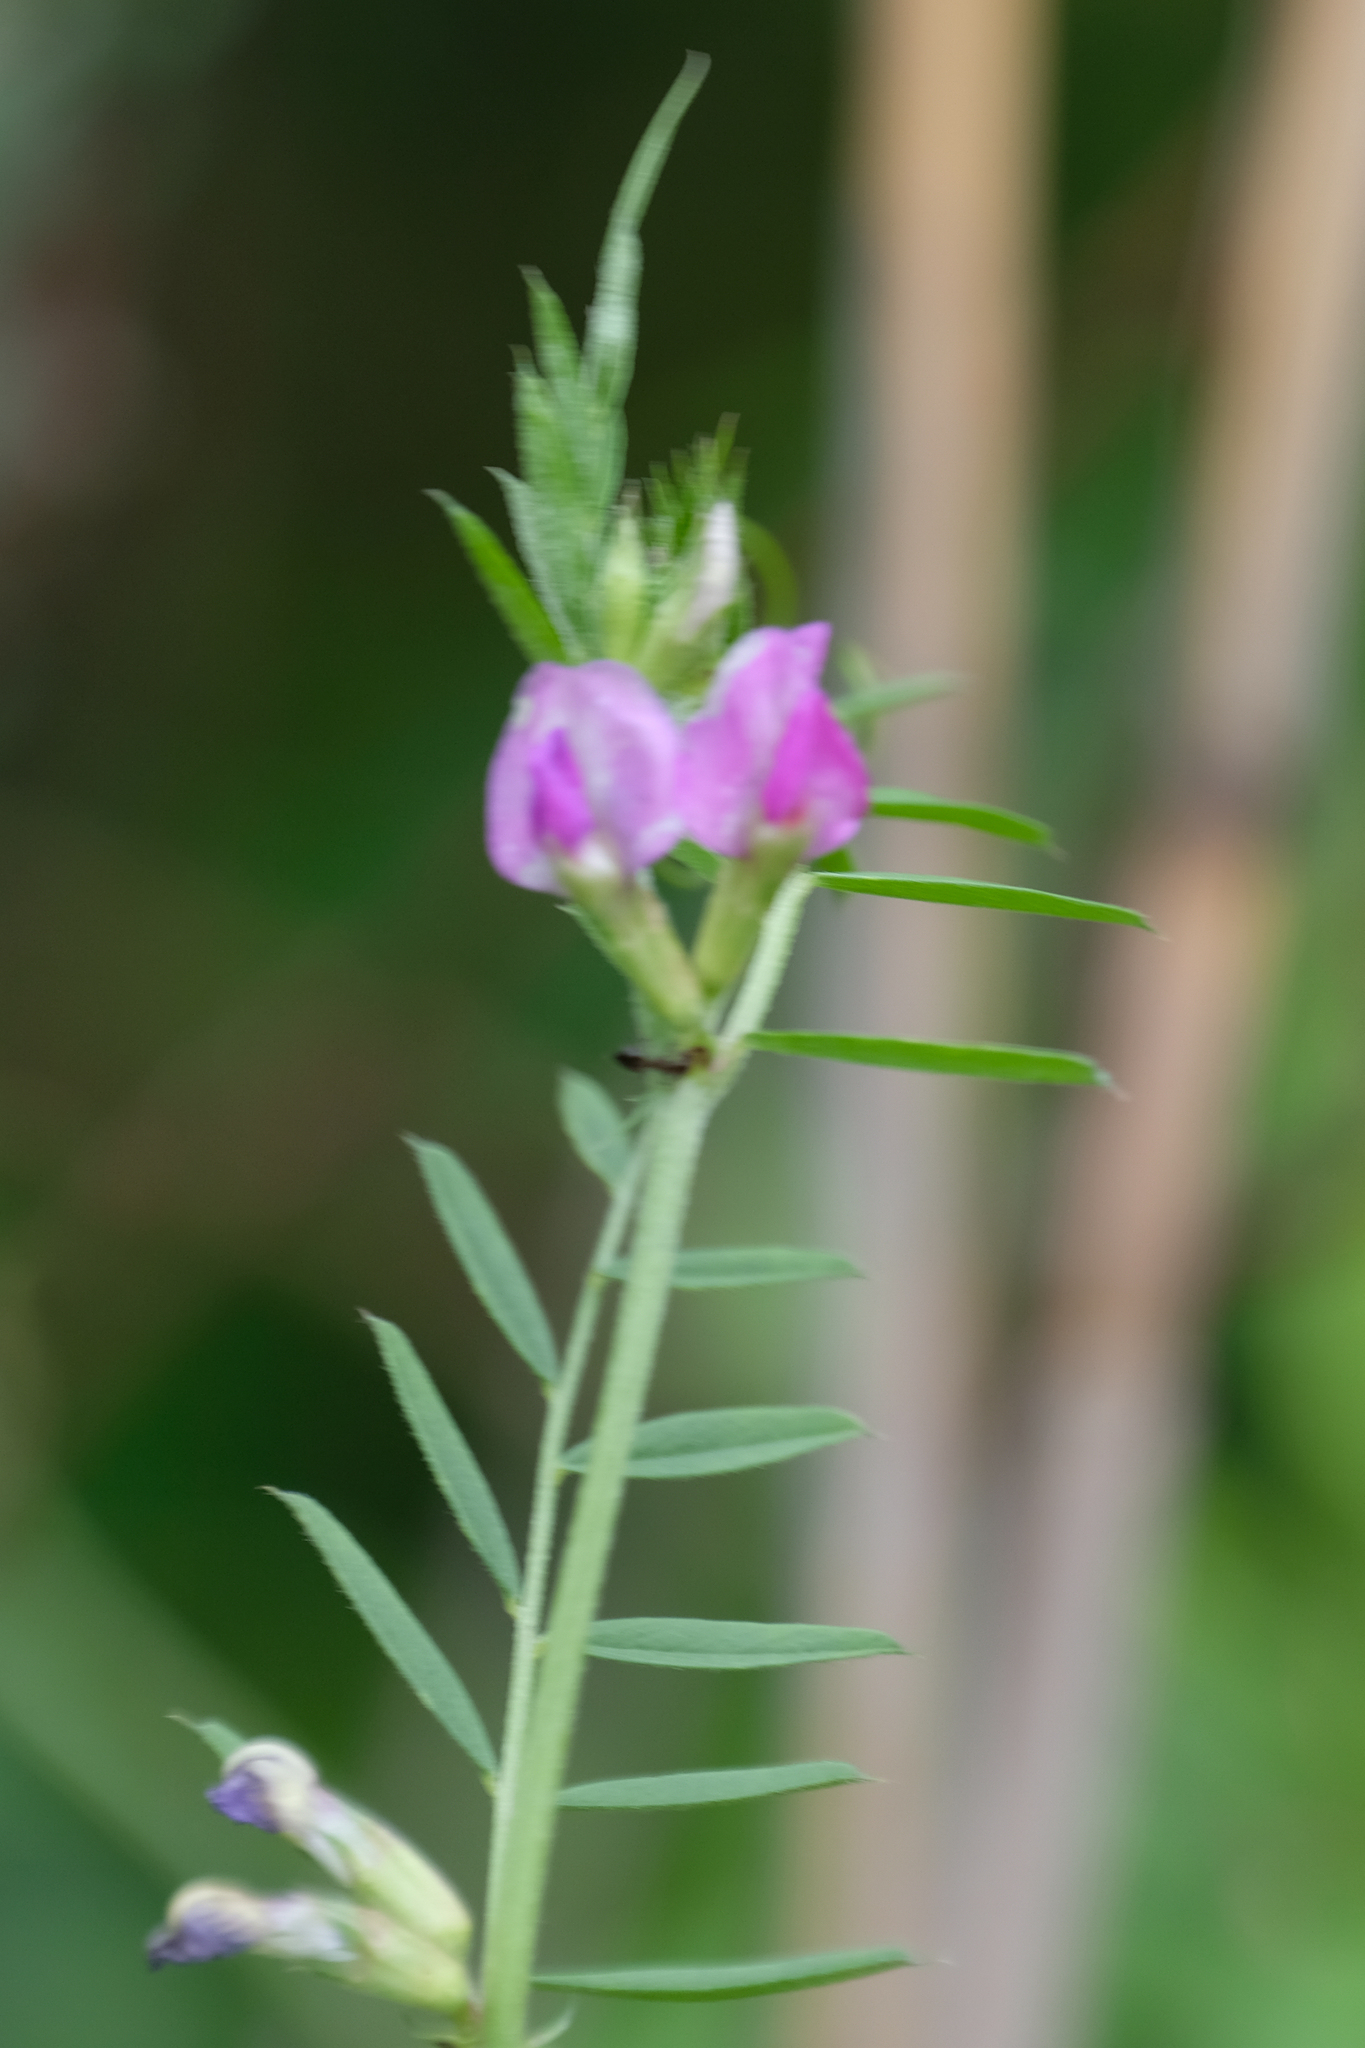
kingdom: Plantae
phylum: Tracheophyta
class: Magnoliopsida
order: Fabales
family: Fabaceae
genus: Vicia
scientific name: Vicia sativa
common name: Garden vetch
